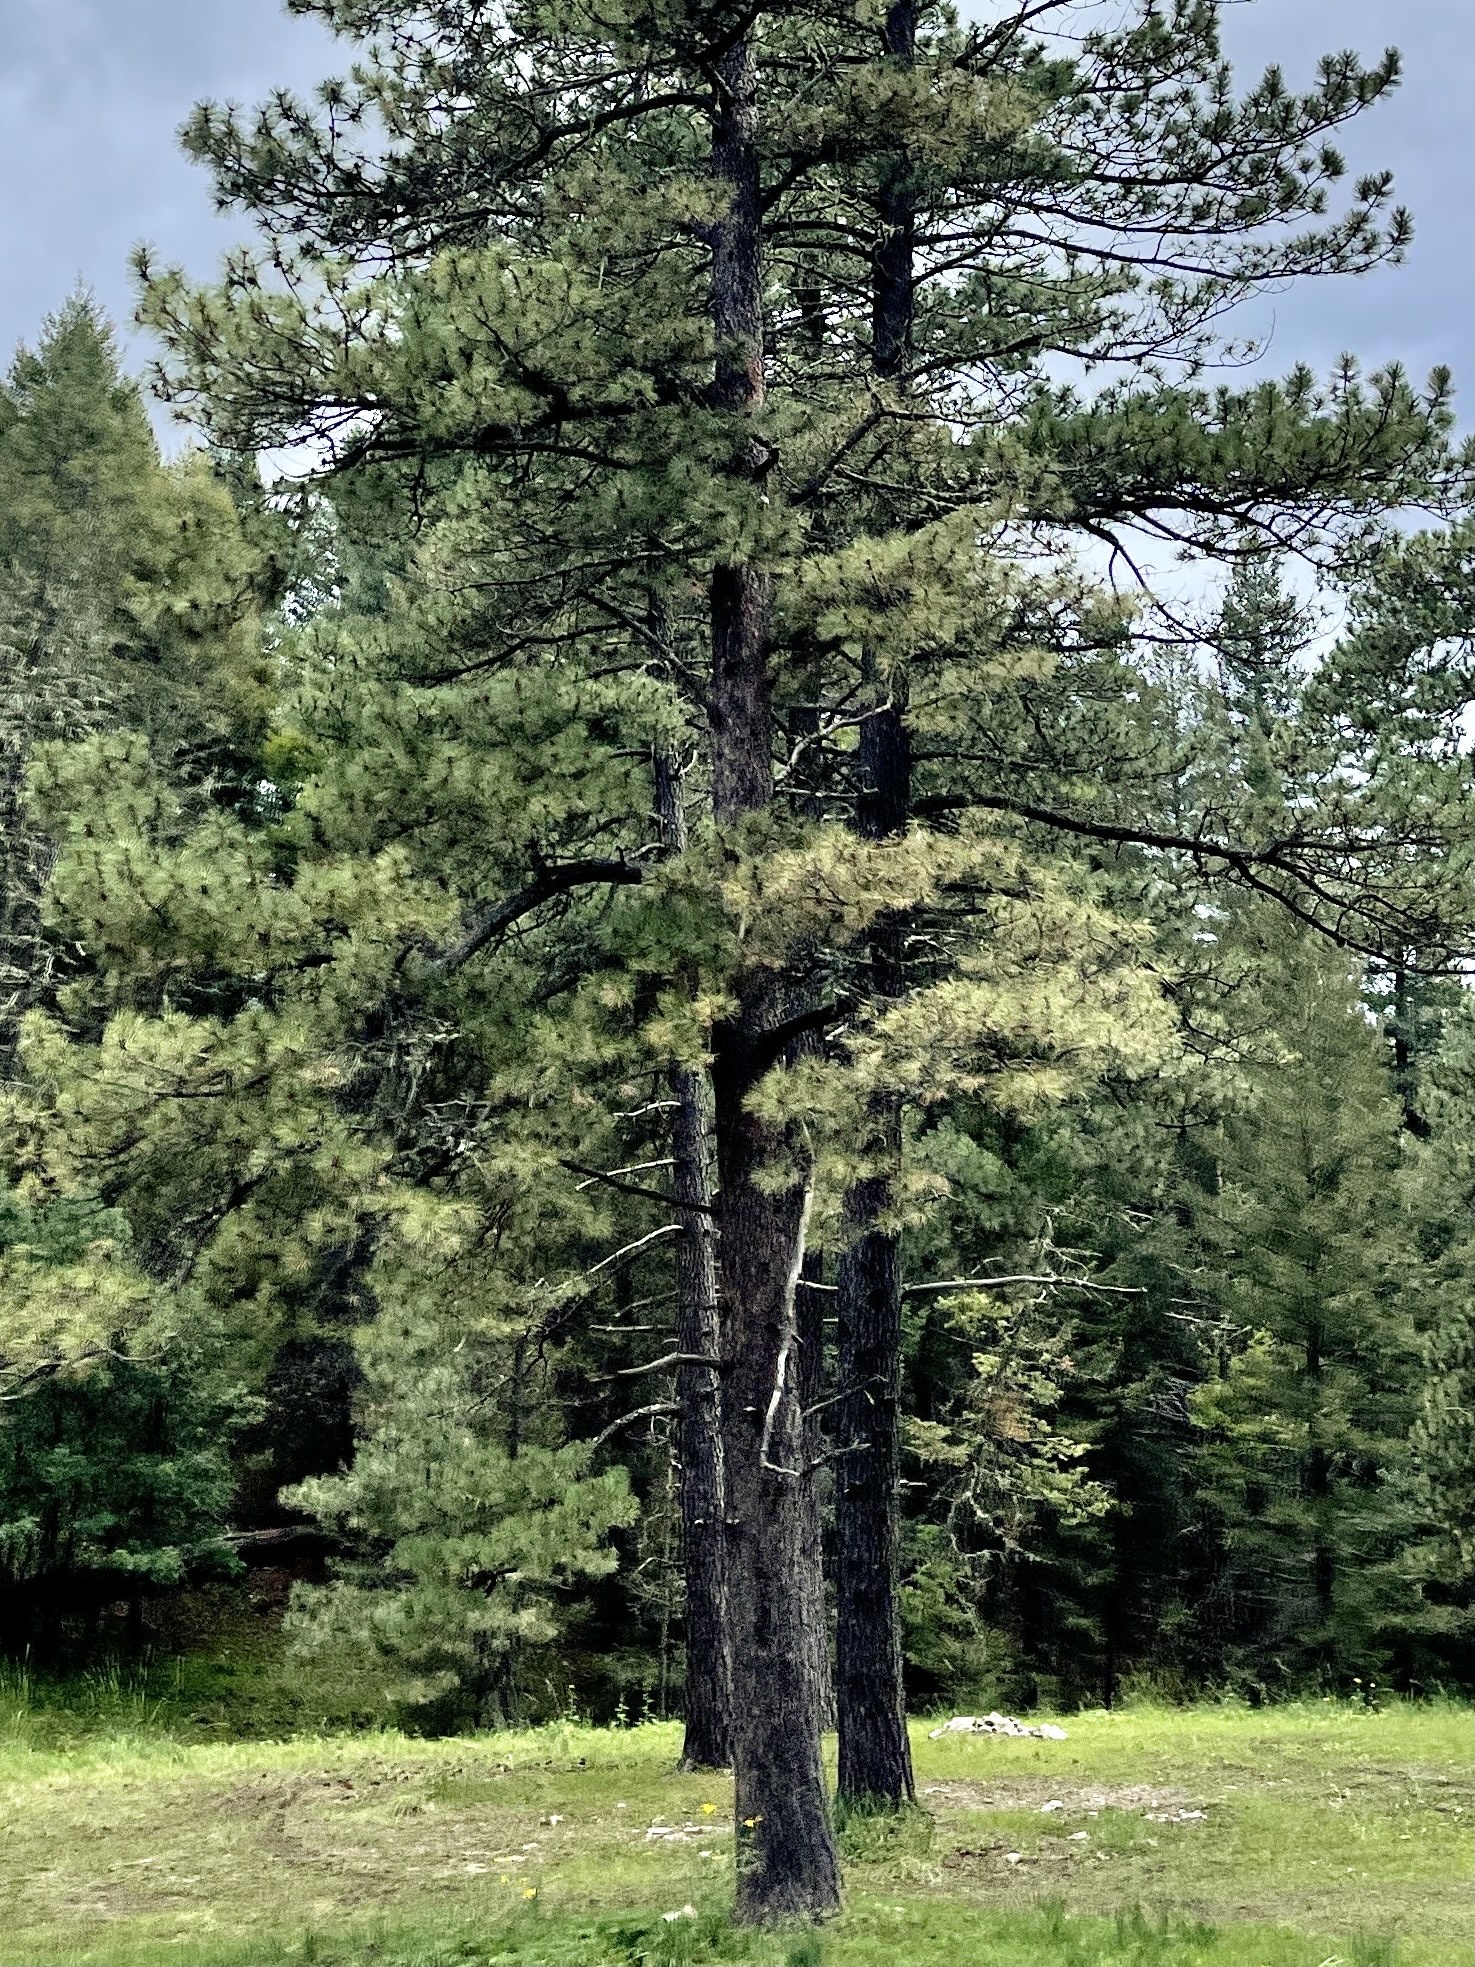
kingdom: Plantae
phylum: Tracheophyta
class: Pinopsida
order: Pinales
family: Pinaceae
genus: Pinus
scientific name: Pinus ponderosa
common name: Western yellow-pine
